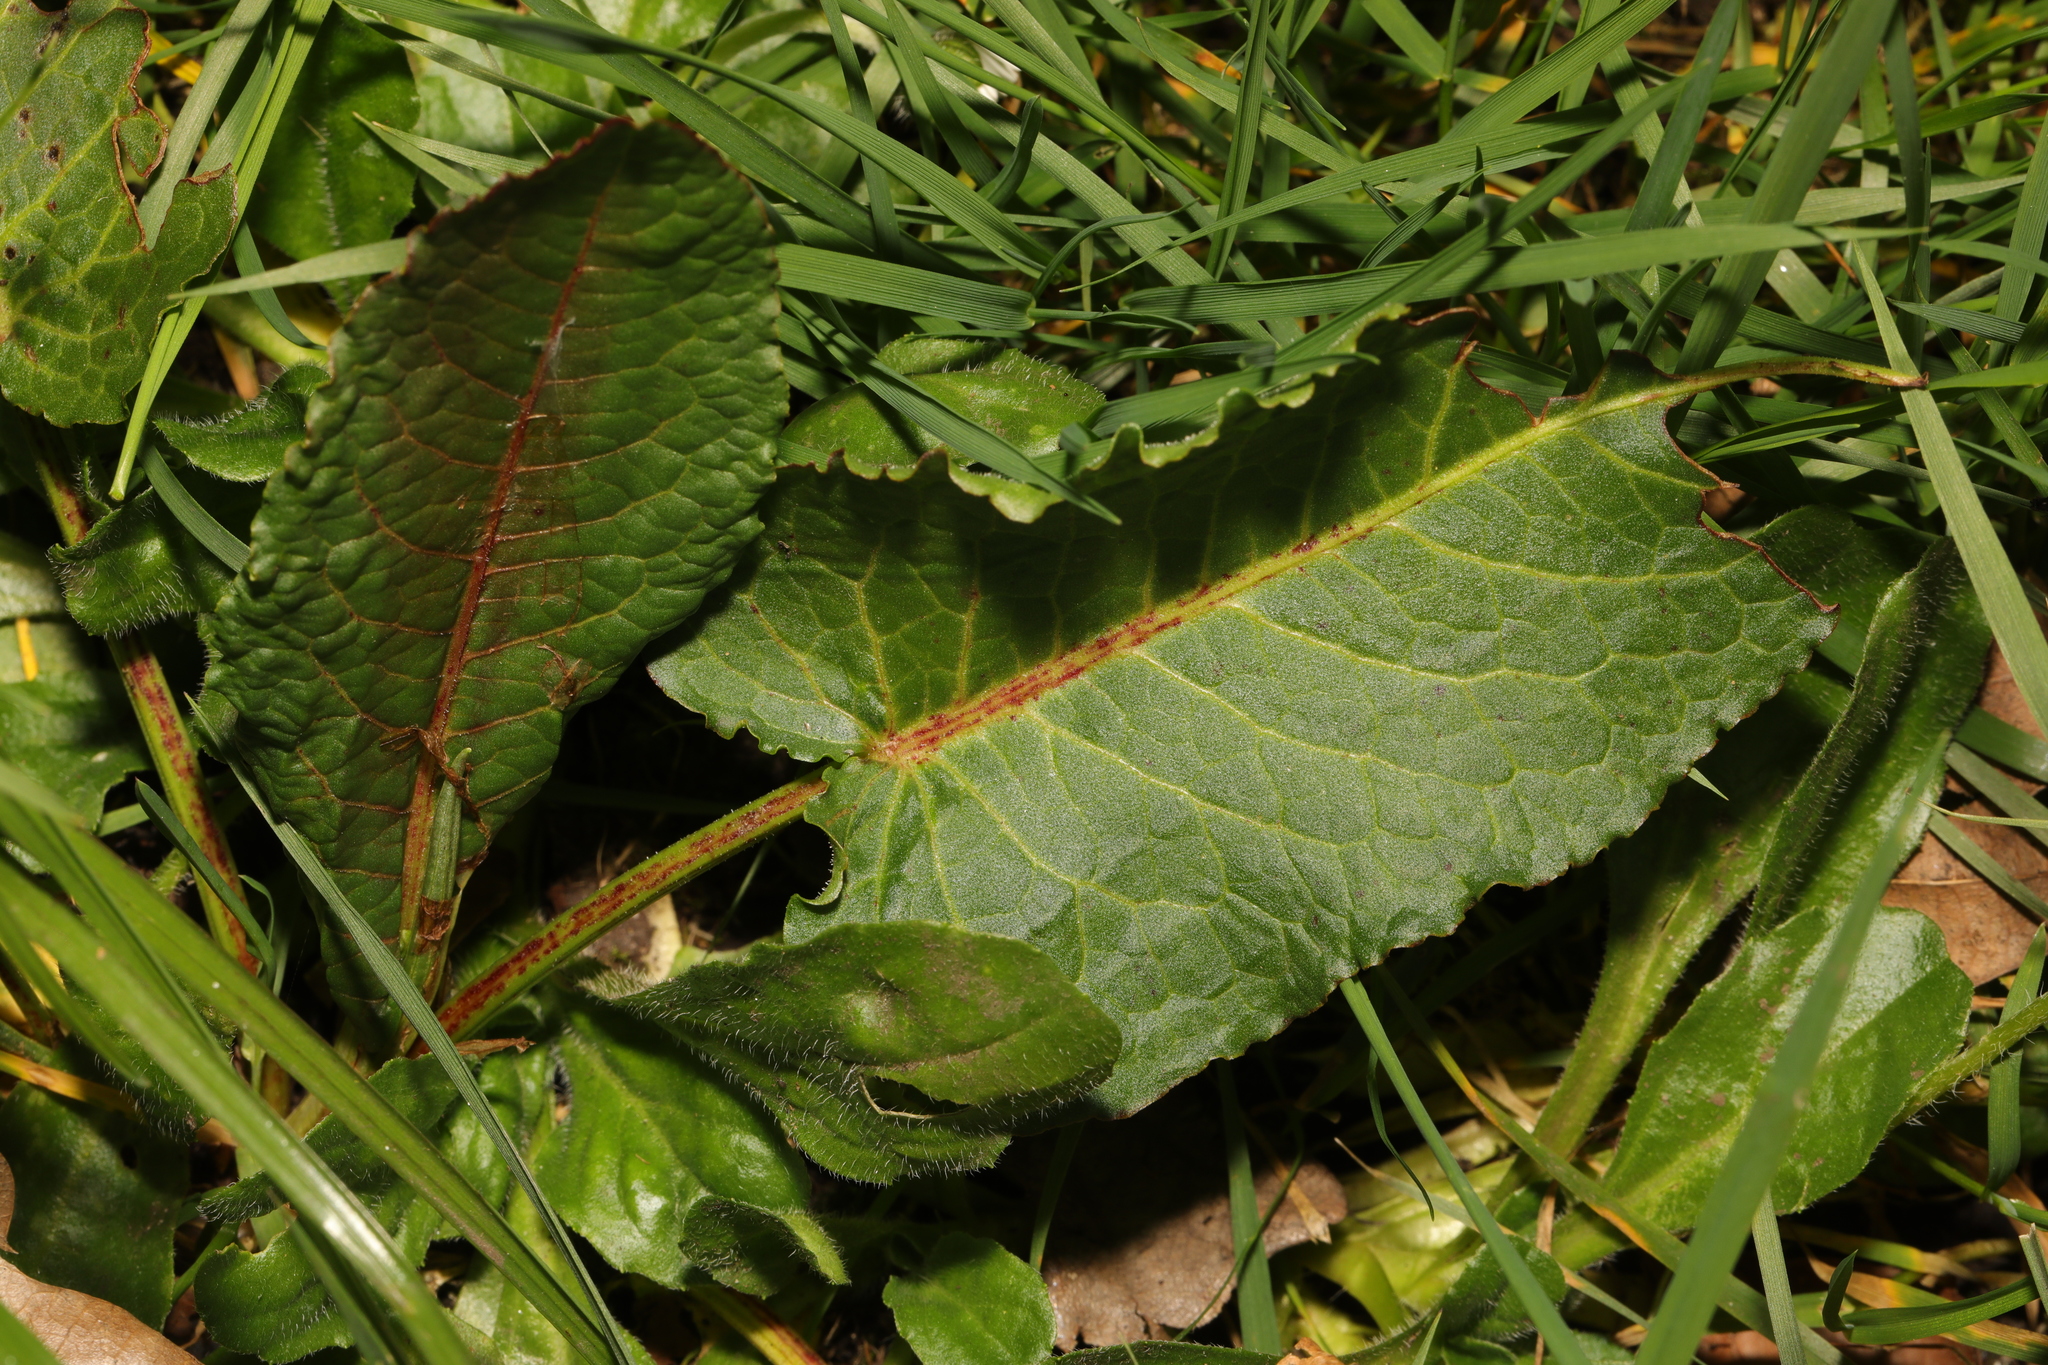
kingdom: Plantae
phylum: Tracheophyta
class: Magnoliopsida
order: Caryophyllales
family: Polygonaceae
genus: Rumex
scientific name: Rumex obtusifolius
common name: Bitter dock
